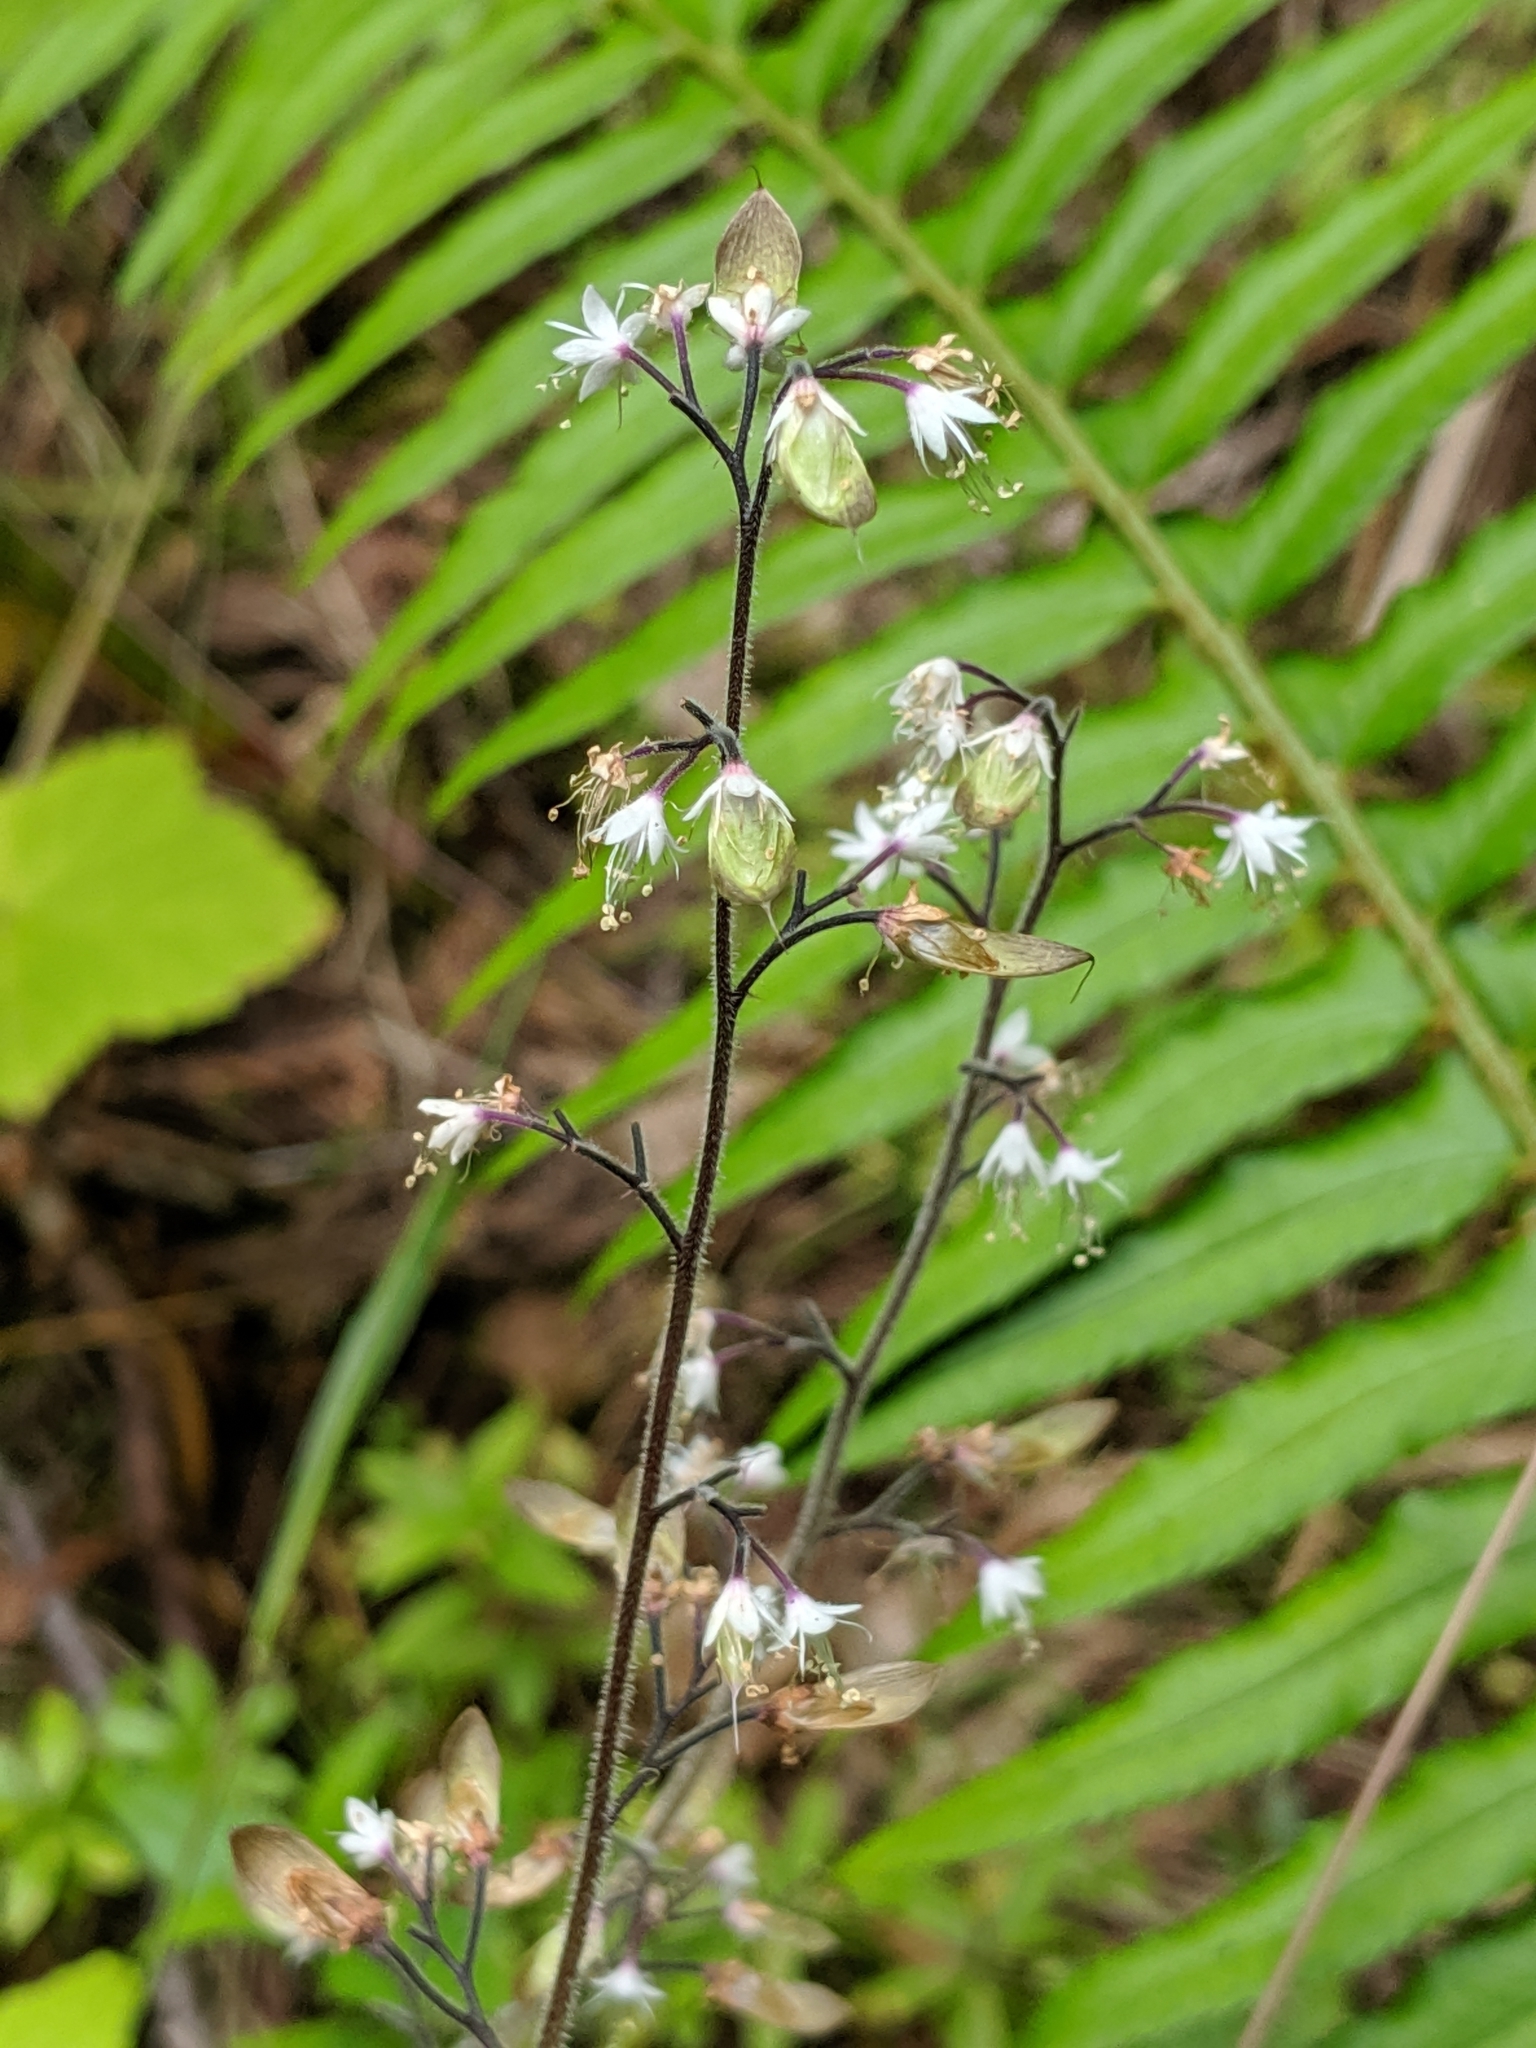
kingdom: Plantae
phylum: Tracheophyta
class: Magnoliopsida
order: Saxifragales
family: Saxifragaceae
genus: Tiarella
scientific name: Tiarella trifoliata
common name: Sugar-scoop
